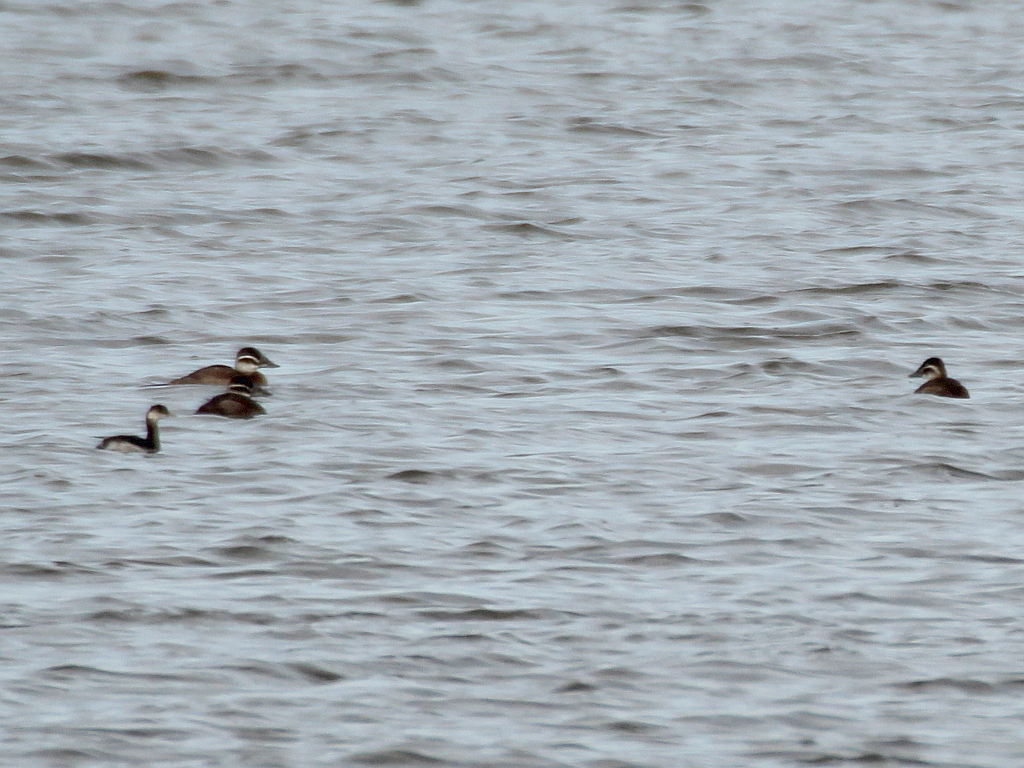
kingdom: Animalia
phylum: Chordata
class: Aves
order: Anseriformes
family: Anatidae
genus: Oxyura
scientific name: Oxyura leucocephala
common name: White-headed duck
